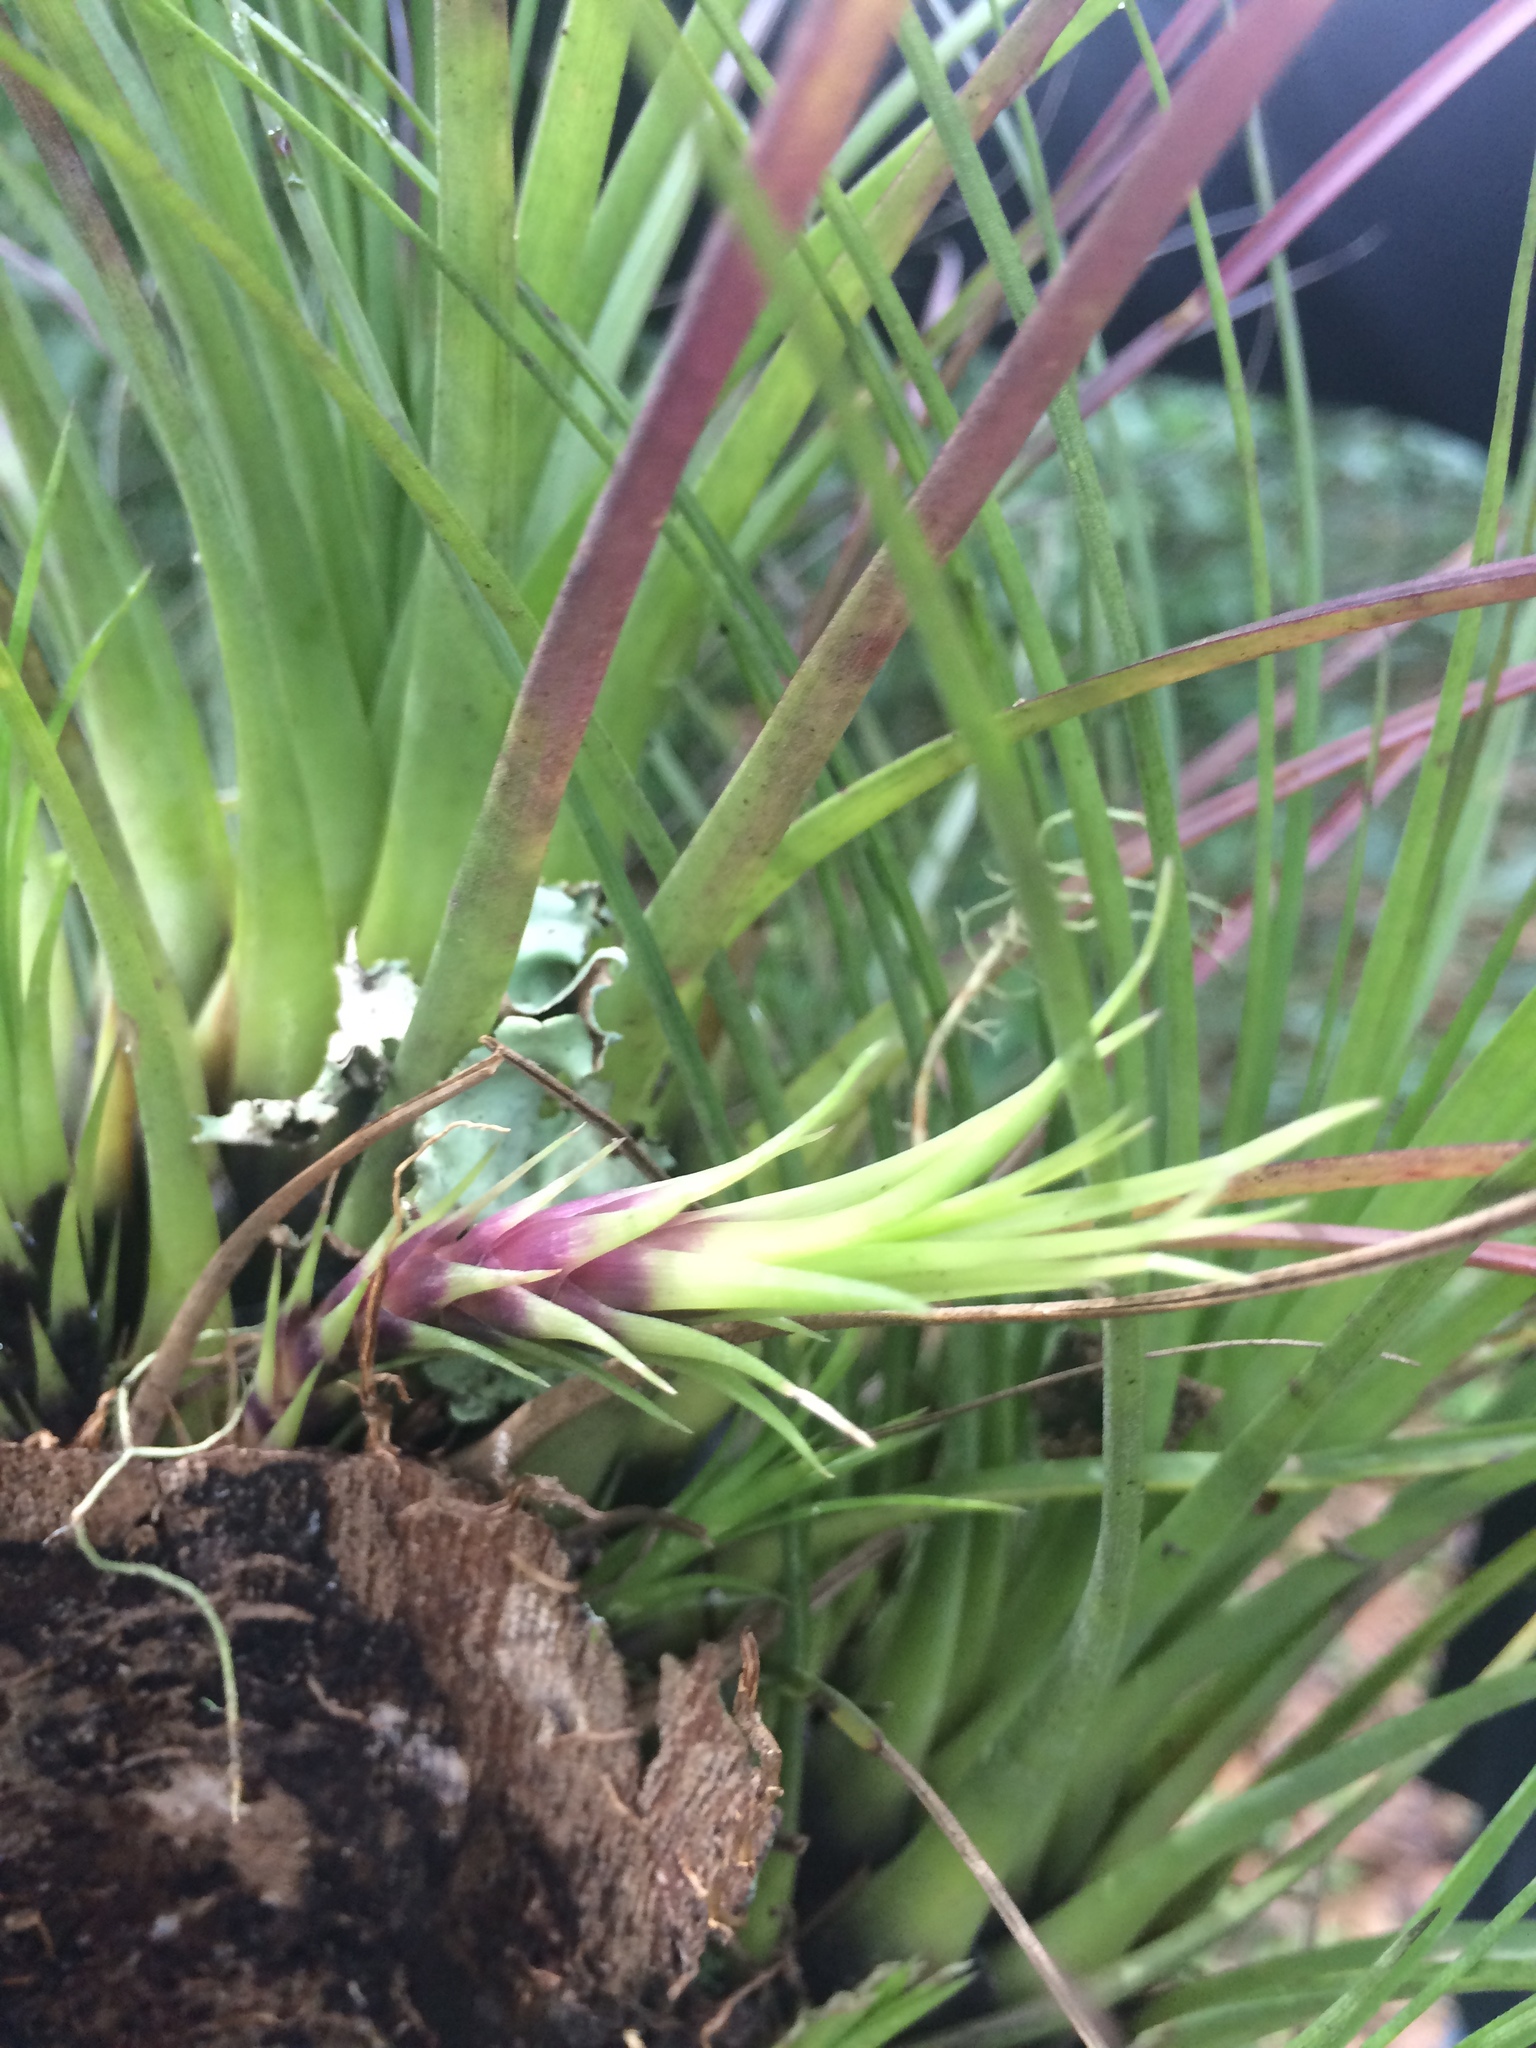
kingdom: Plantae
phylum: Tracheophyta
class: Liliopsida
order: Poales
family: Bromeliaceae
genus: Tillandsia
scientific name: Tillandsia punctulata
